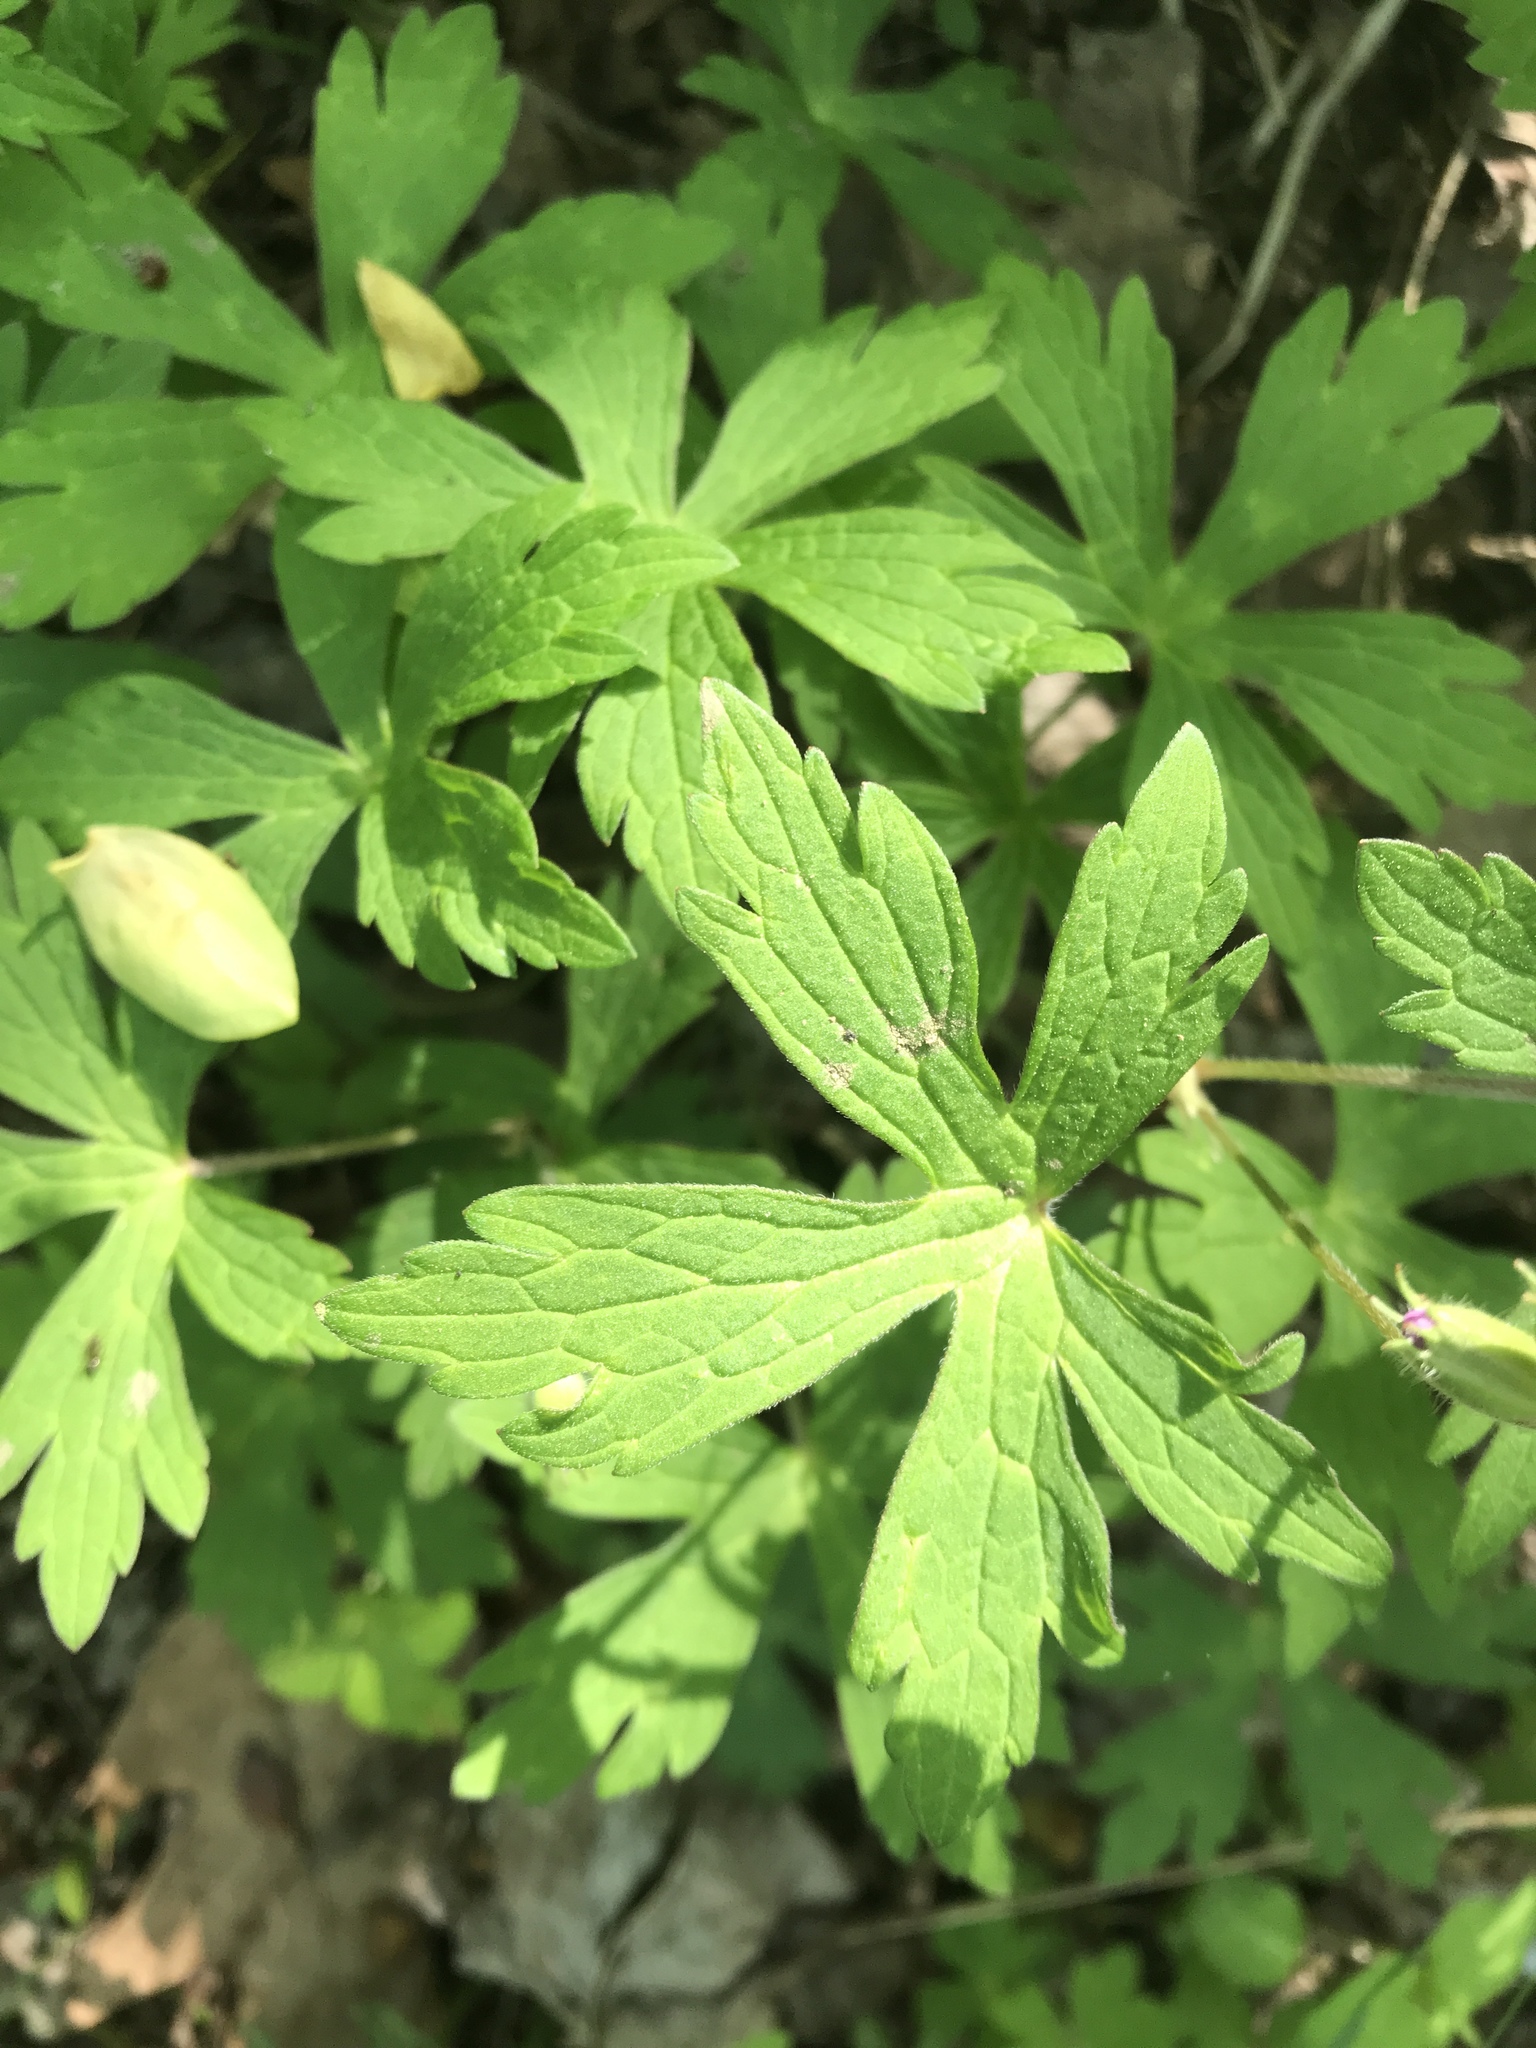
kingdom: Plantae
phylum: Tracheophyta
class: Magnoliopsida
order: Geraniales
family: Geraniaceae
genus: Geranium
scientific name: Geranium maculatum
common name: Spotted geranium
